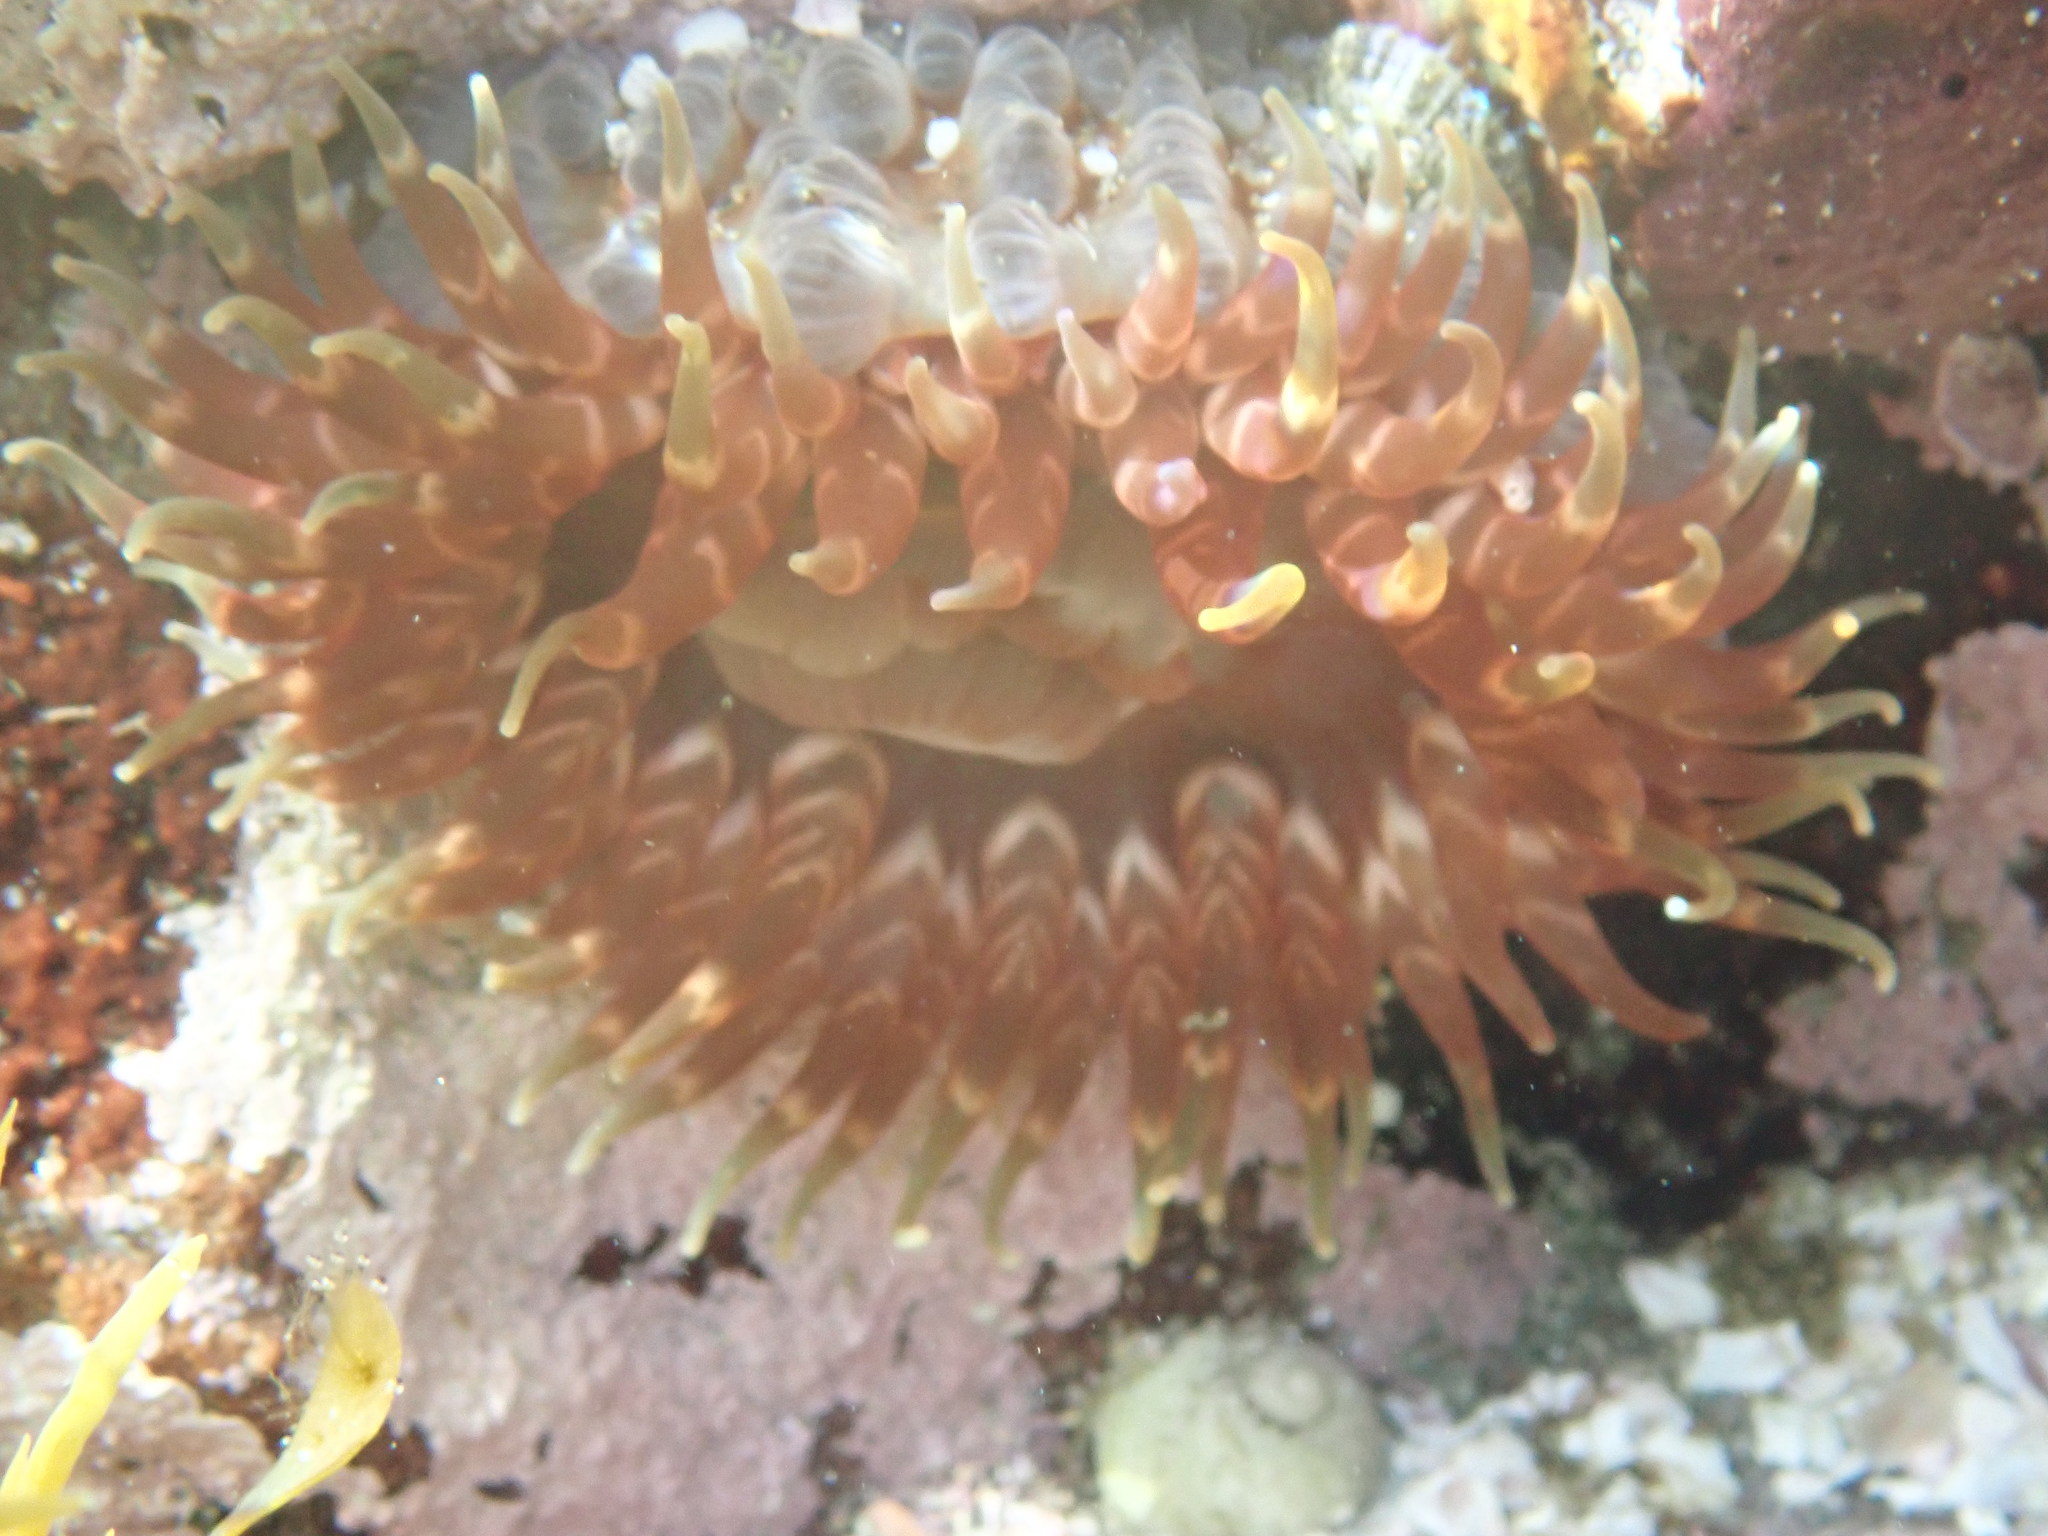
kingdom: Animalia
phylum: Cnidaria
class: Anthozoa
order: Actiniaria
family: Actiniidae
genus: Phlyctenanthus
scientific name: Phlyctenanthus australis
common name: Southern anemone
